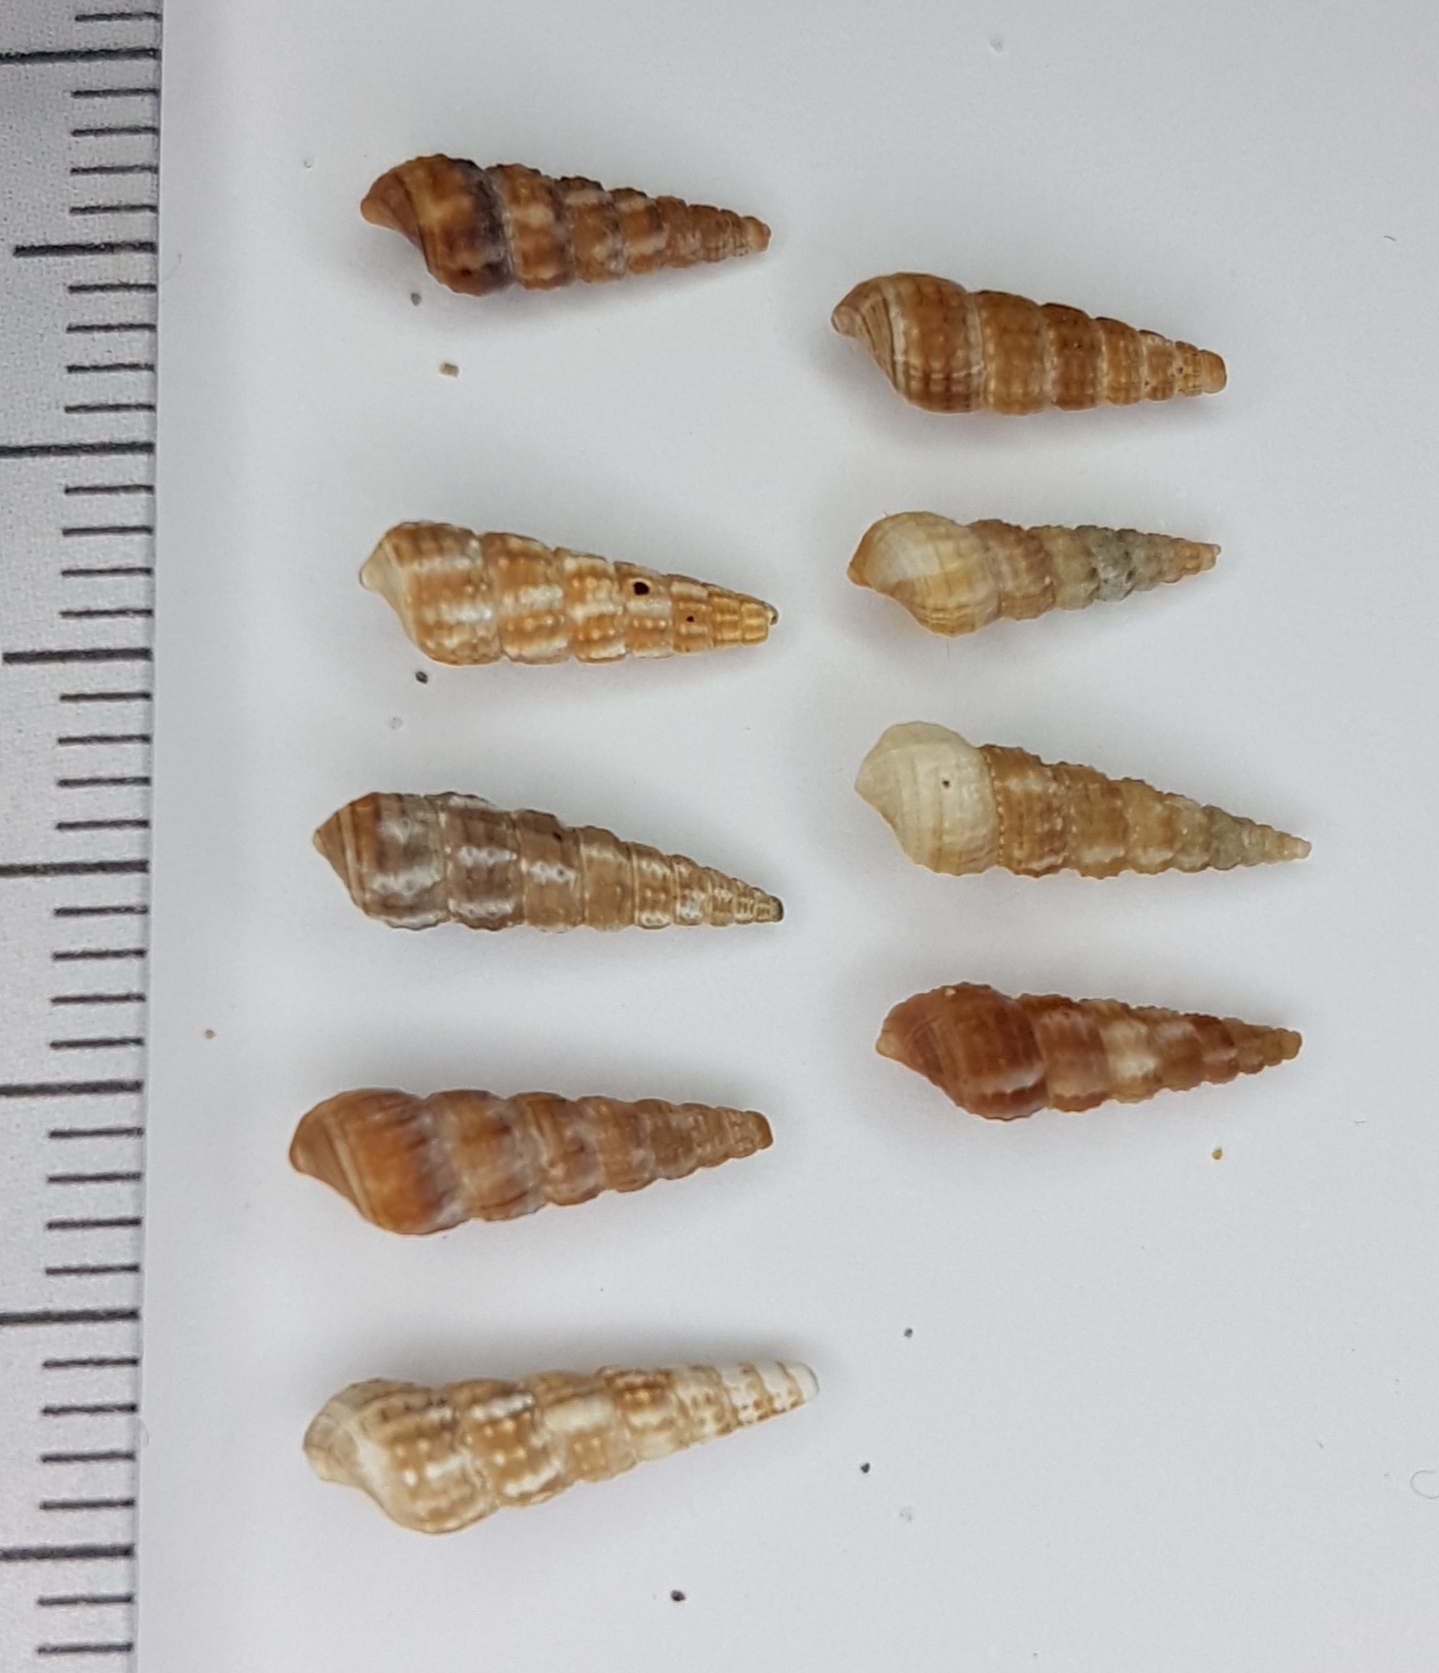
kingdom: Animalia
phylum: Mollusca
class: Gastropoda
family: Cerithiidae
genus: Bittium
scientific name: Bittium reticulatum
